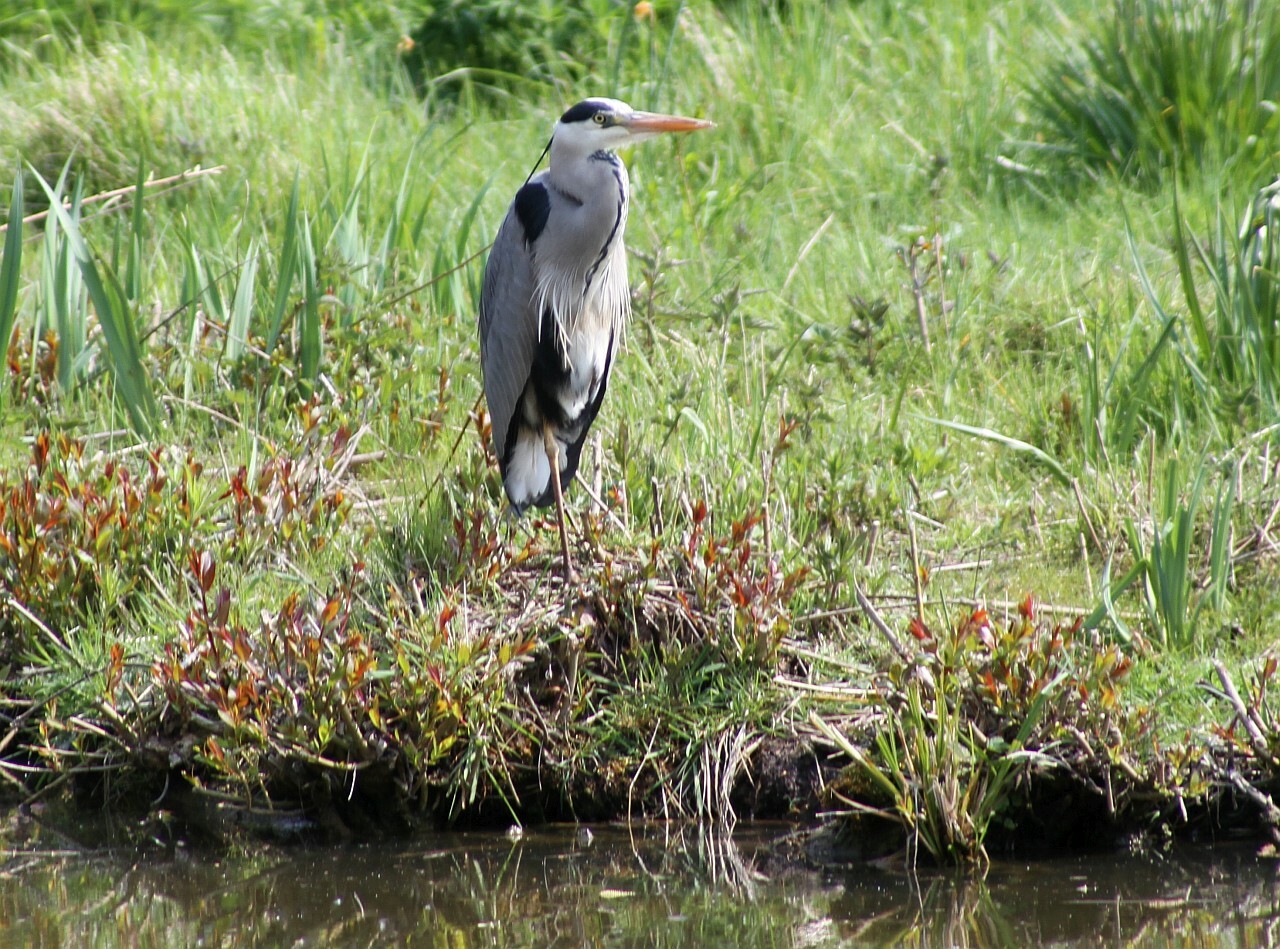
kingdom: Animalia
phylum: Chordata
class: Aves
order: Pelecaniformes
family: Ardeidae
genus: Ardea
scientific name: Ardea cinerea
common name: Grey heron
